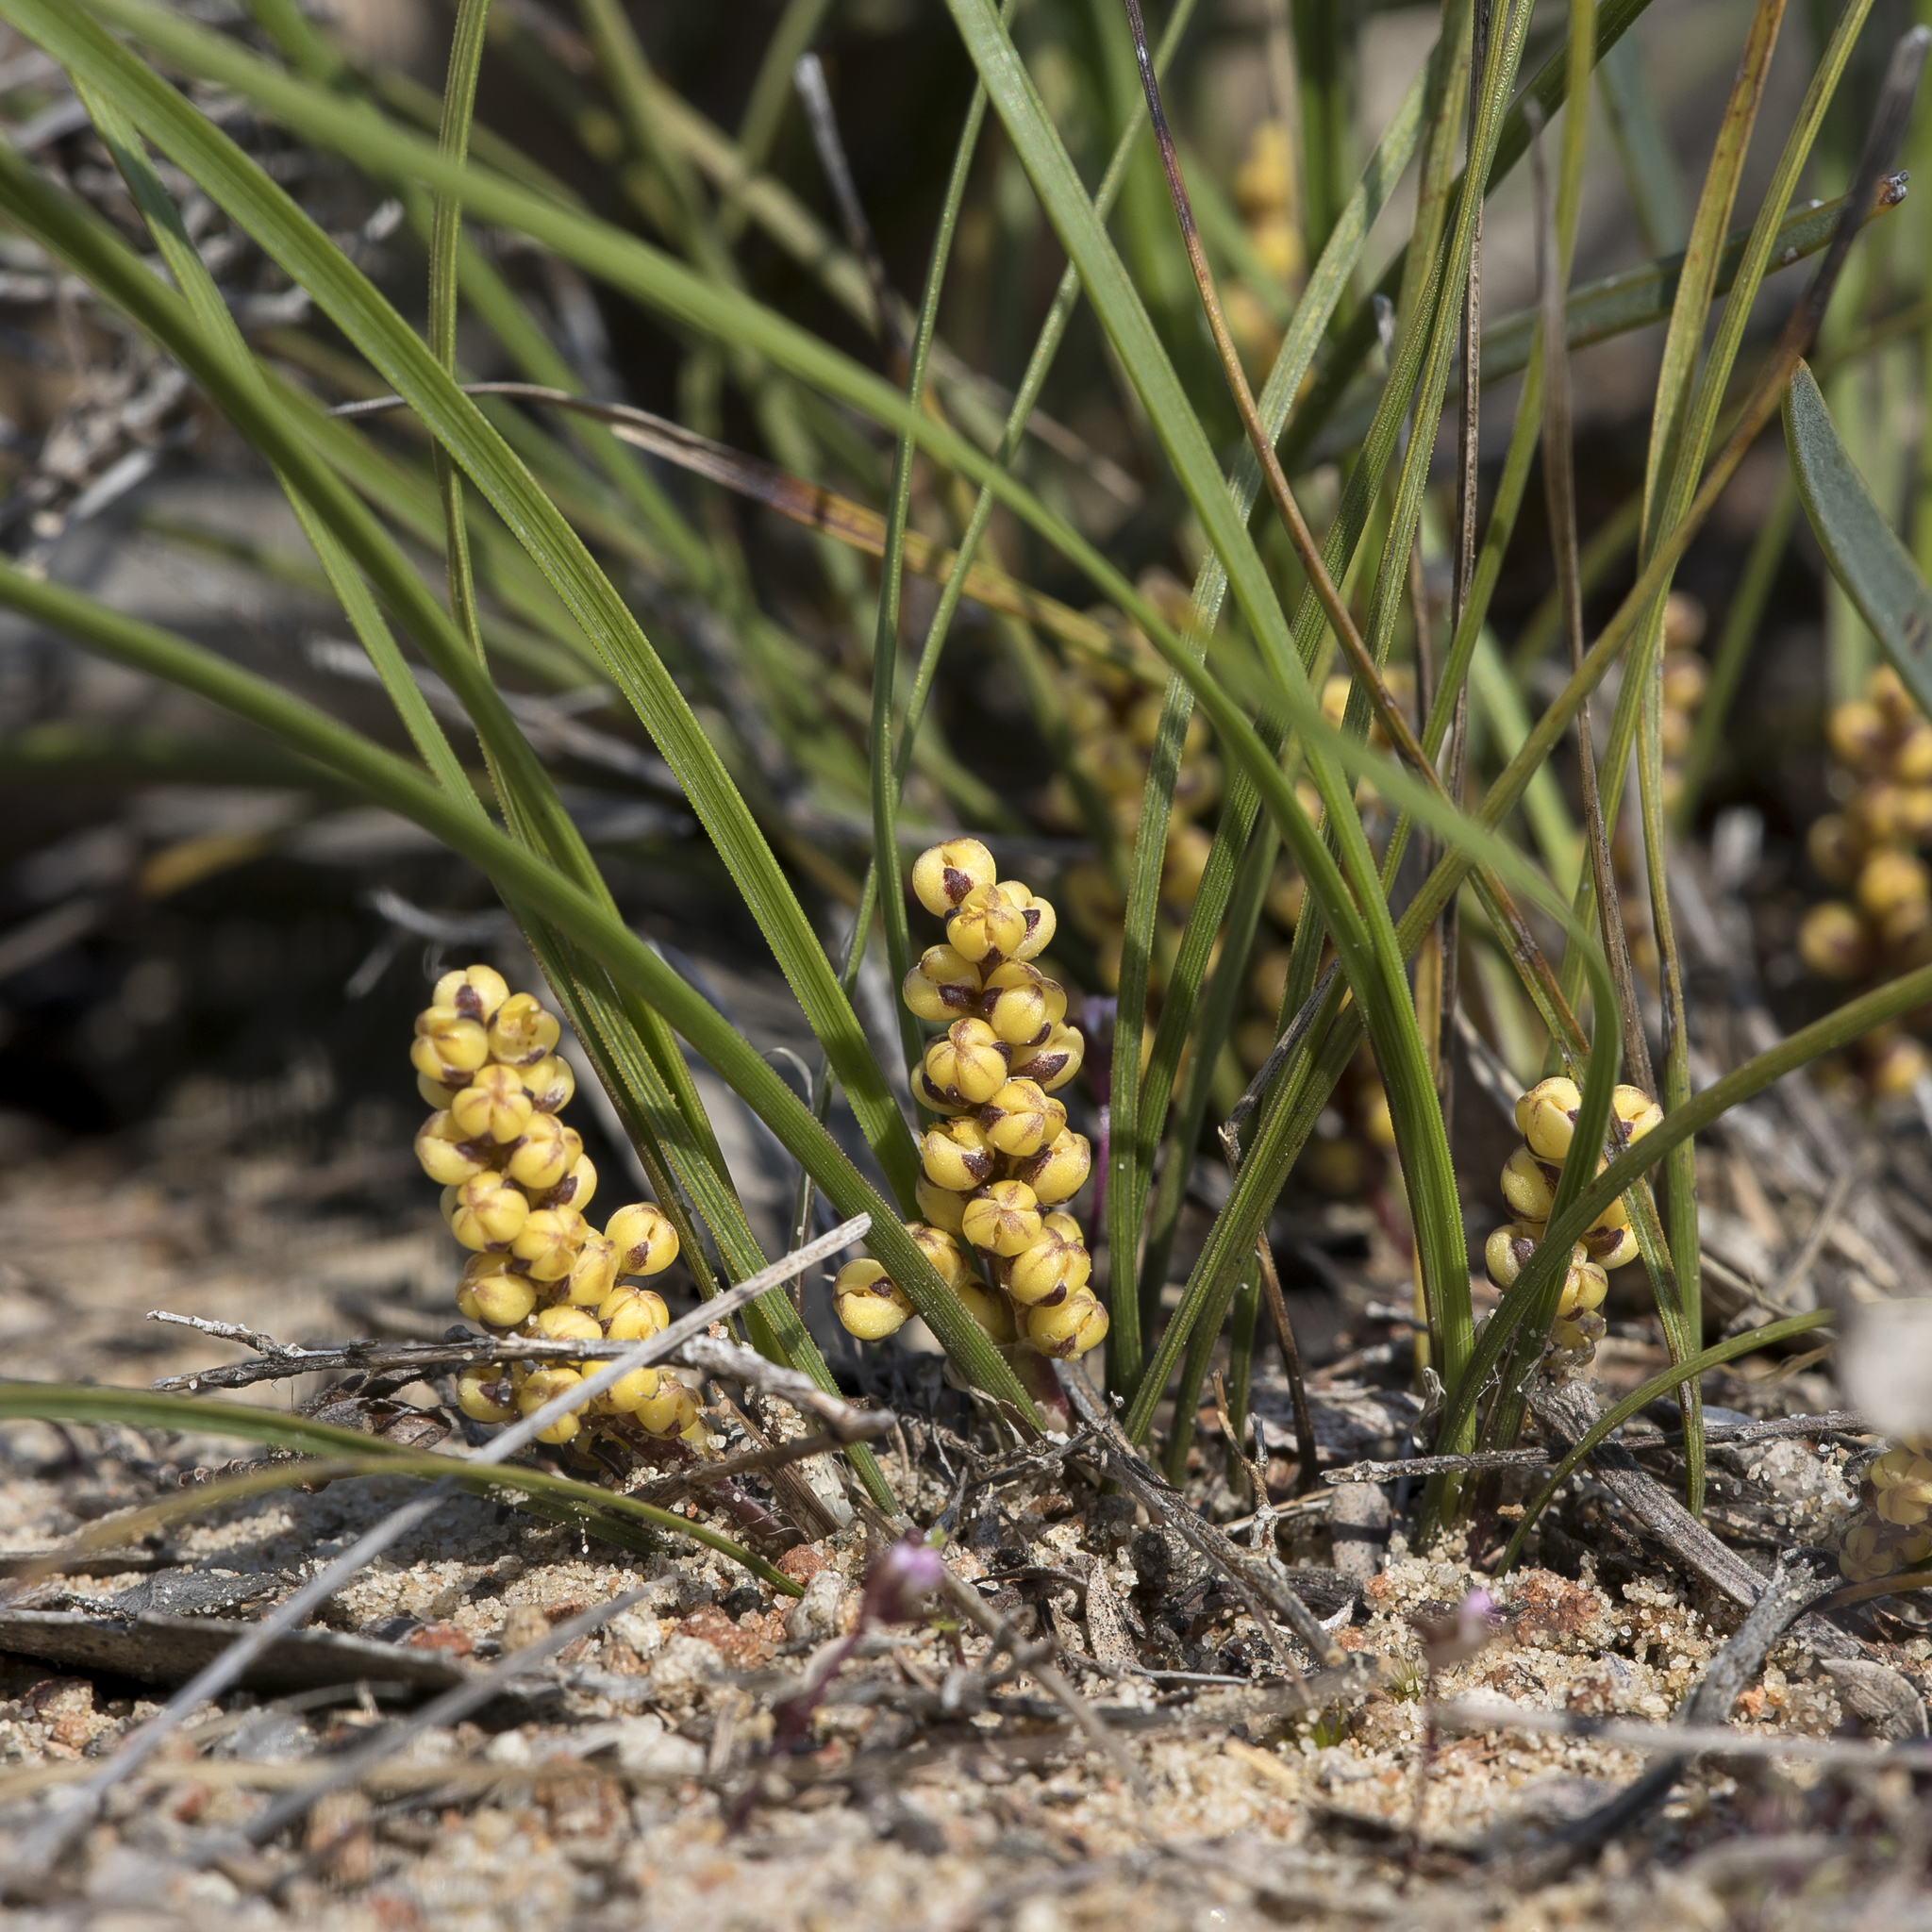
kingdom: Plantae
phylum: Tracheophyta
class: Liliopsida
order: Asparagales
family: Asparagaceae
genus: Lomandra
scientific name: Lomandra sororia
